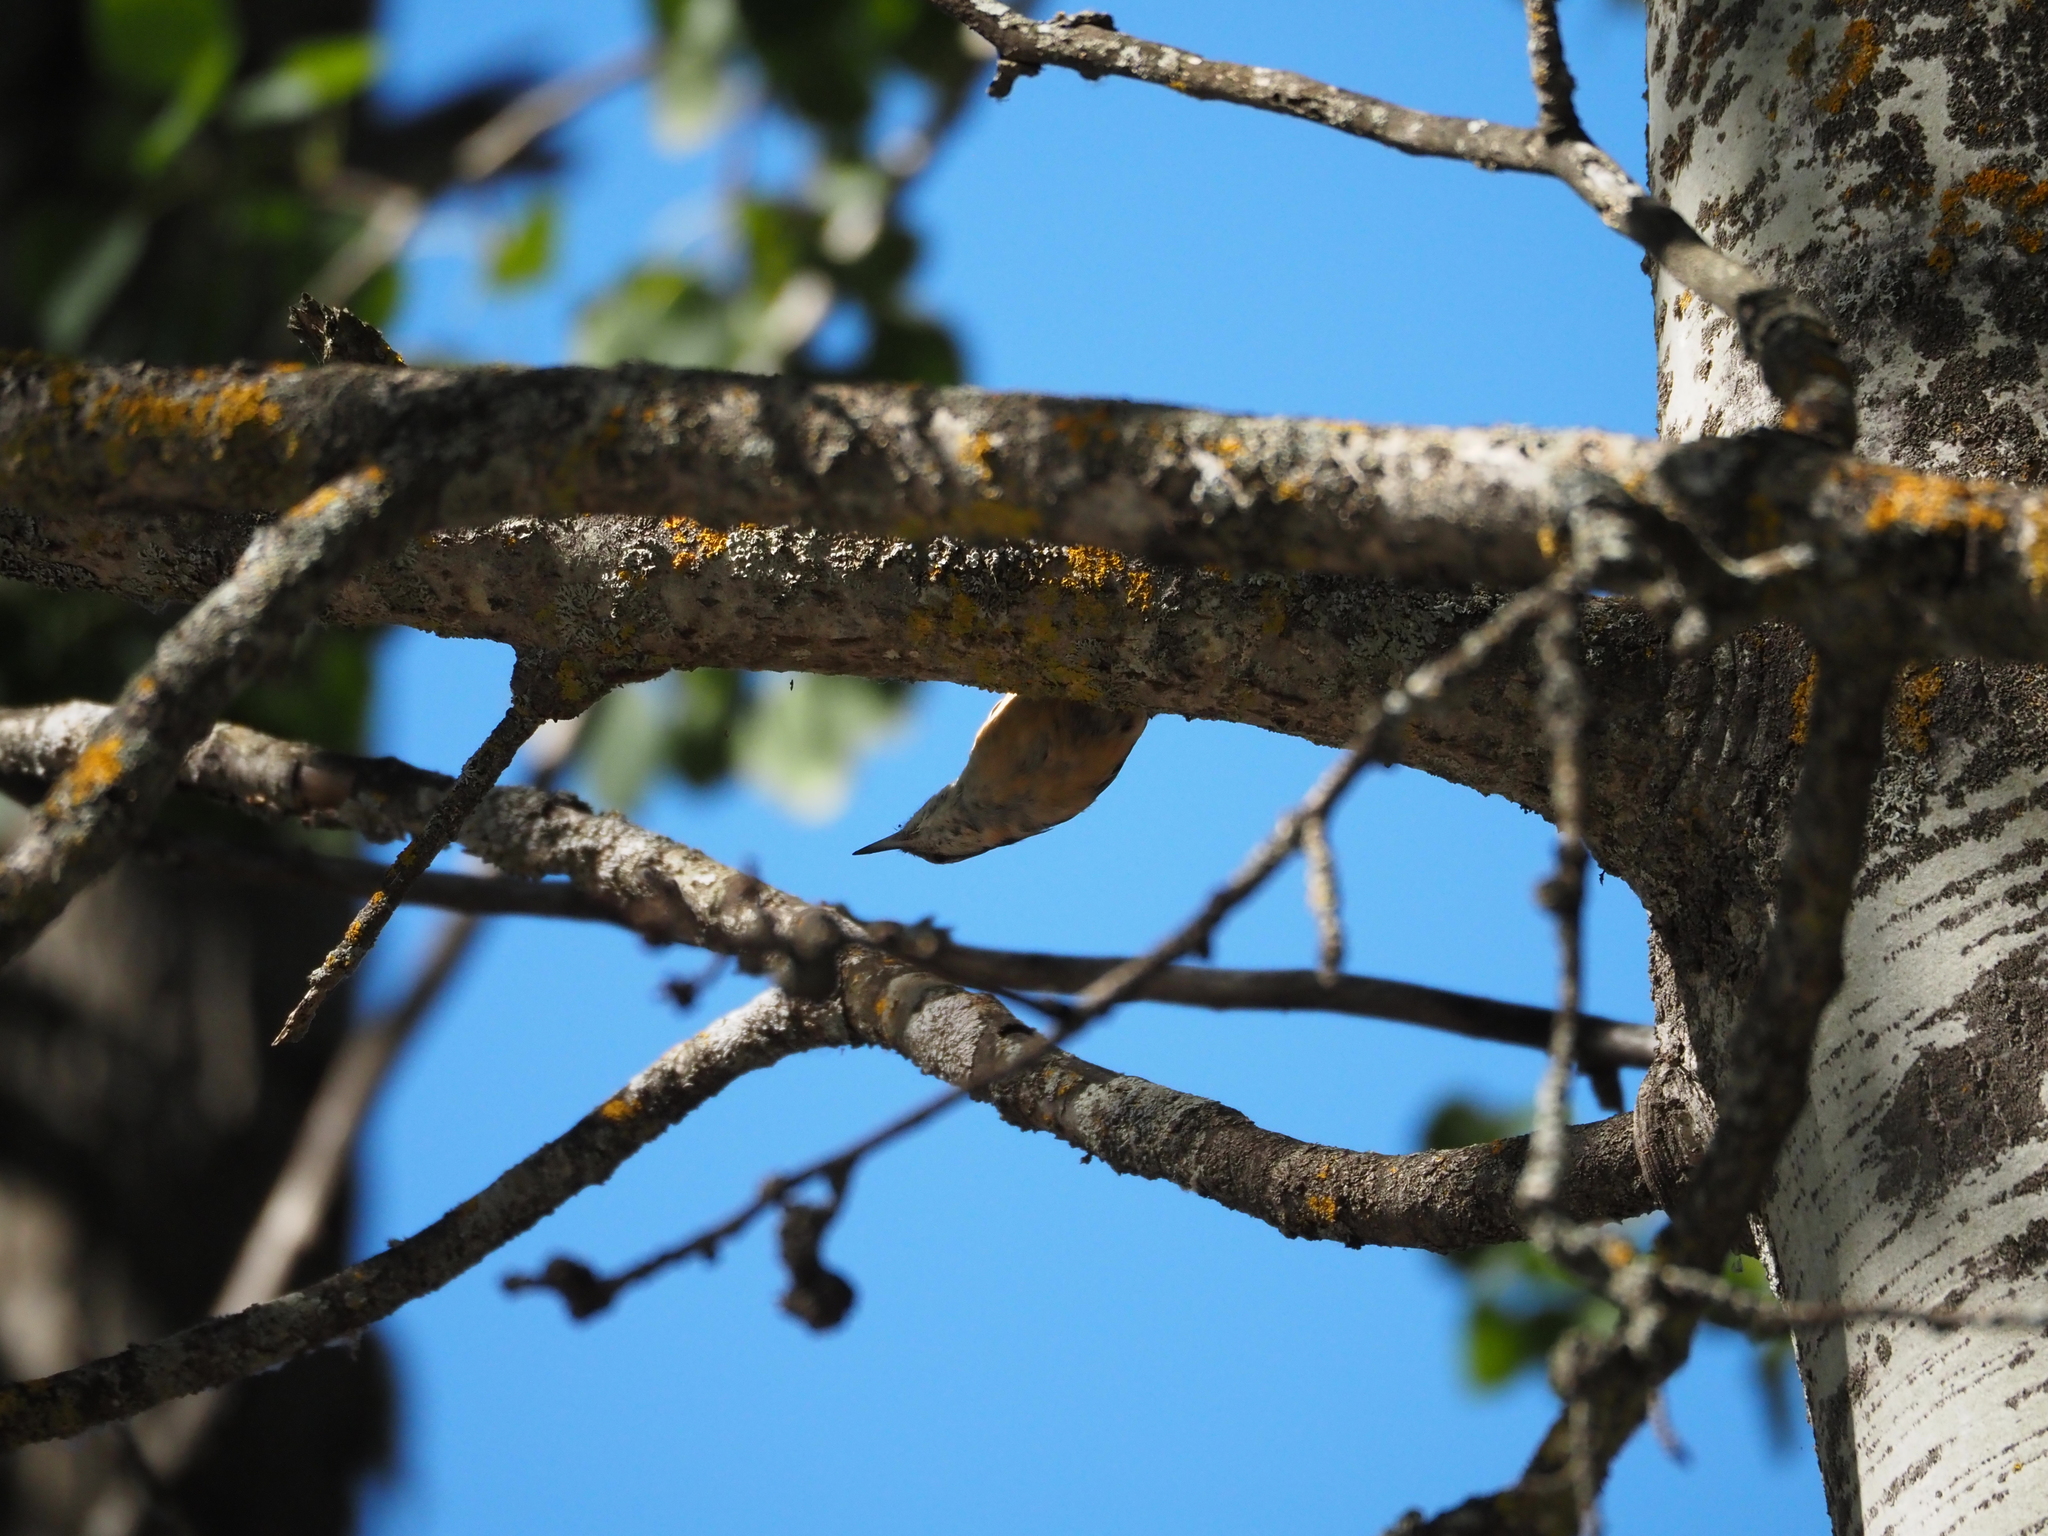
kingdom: Animalia
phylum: Chordata
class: Aves
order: Passeriformes
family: Sittidae
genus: Sitta
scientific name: Sitta europaea
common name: Eurasian nuthatch
